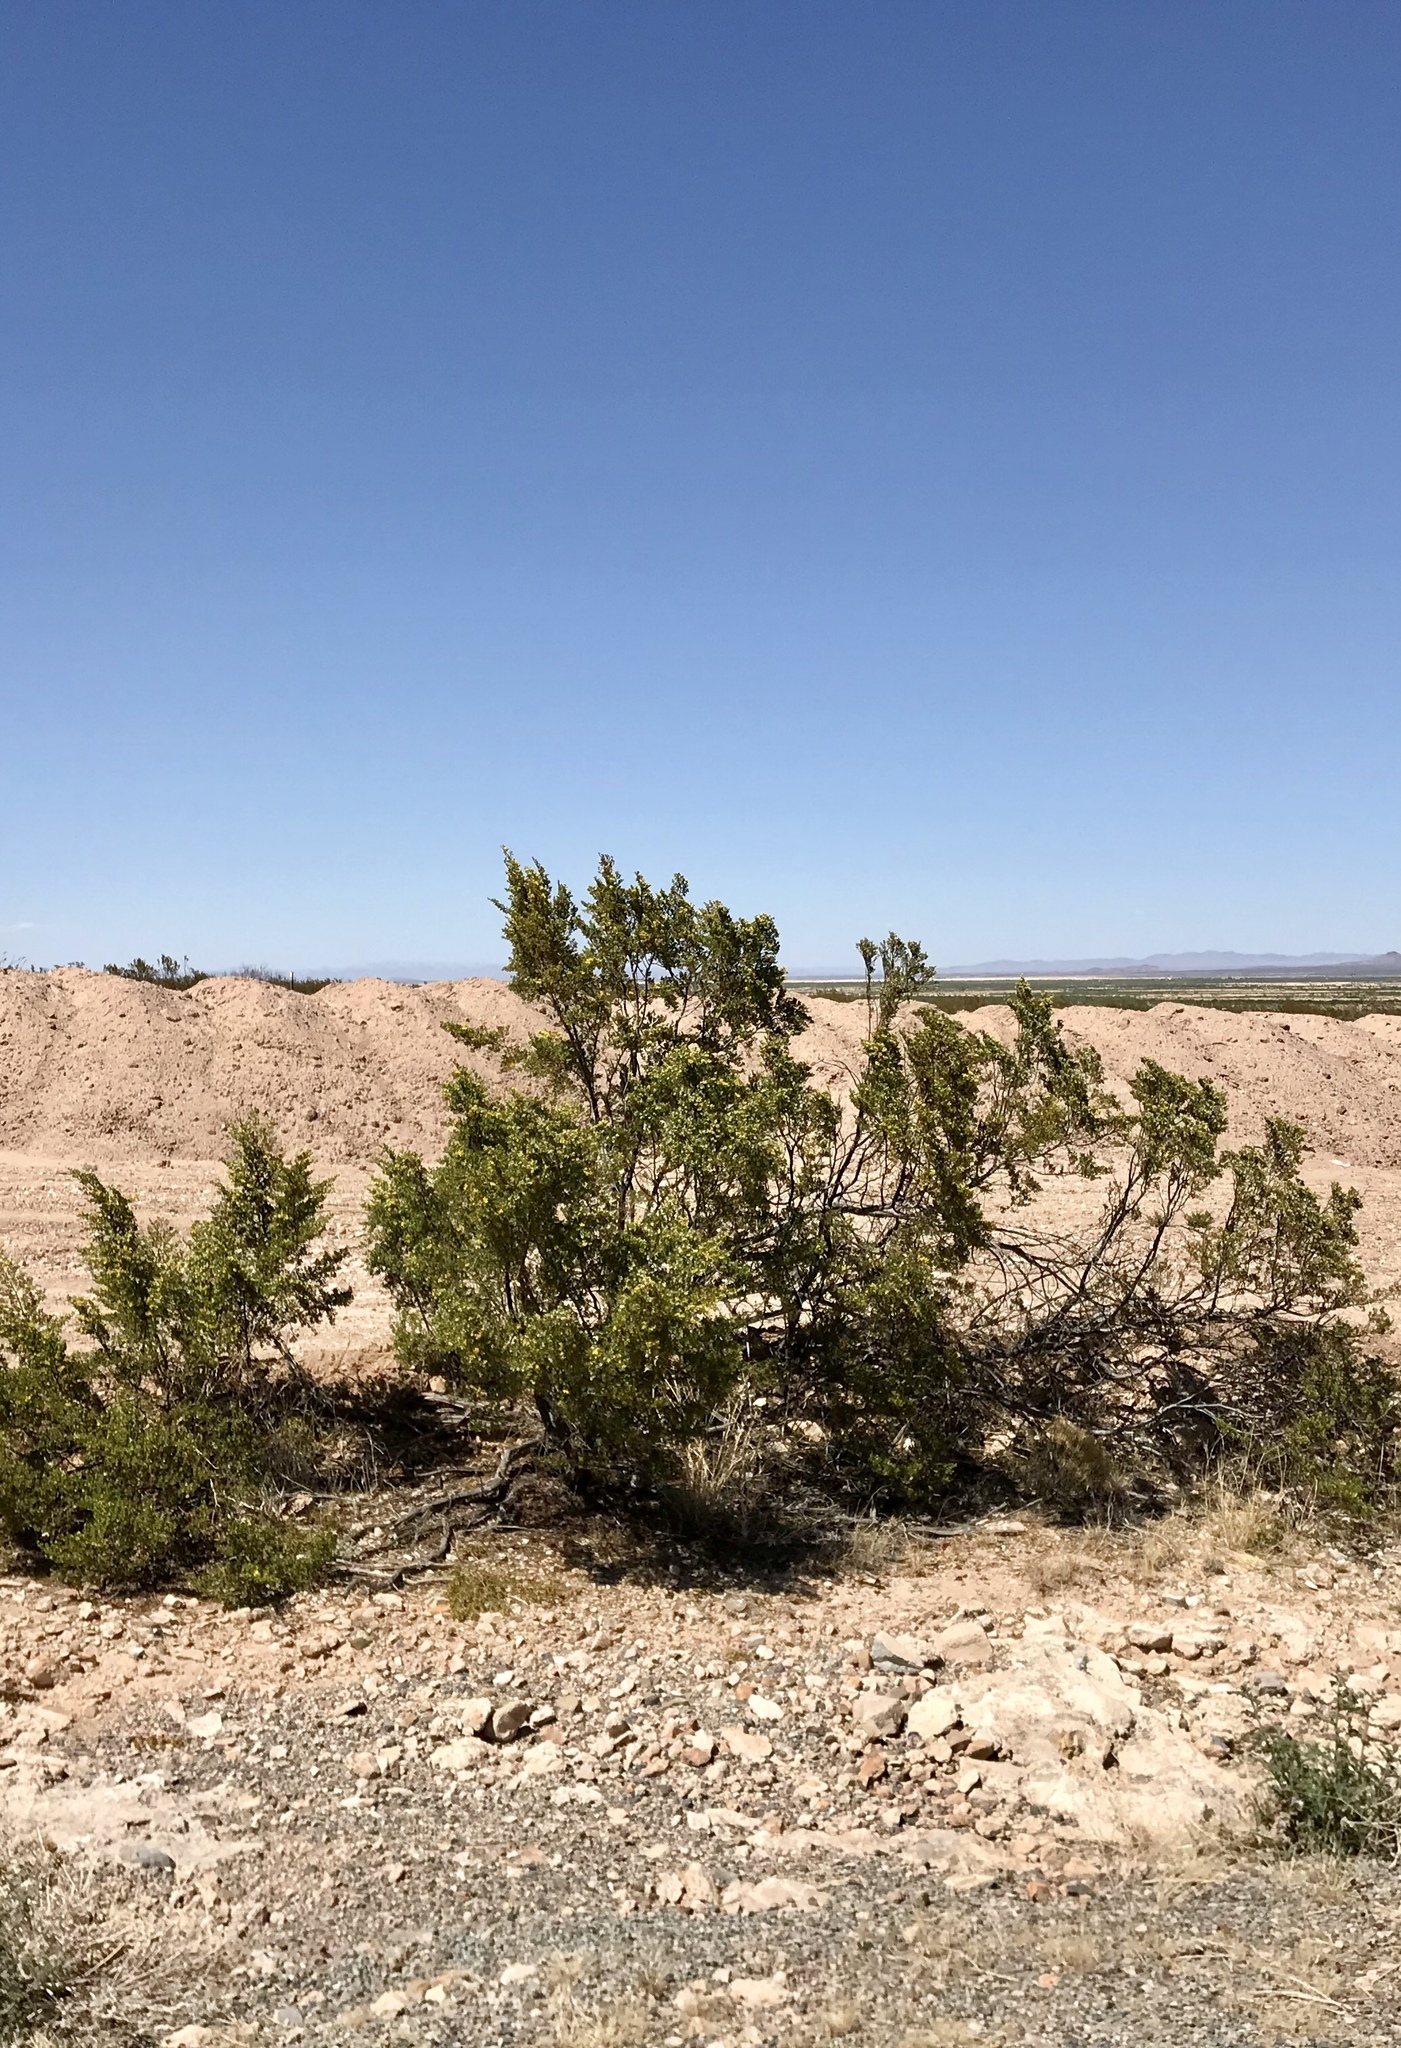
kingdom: Plantae
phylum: Tracheophyta
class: Magnoliopsida
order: Zygophyllales
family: Zygophyllaceae
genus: Larrea
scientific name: Larrea tridentata
